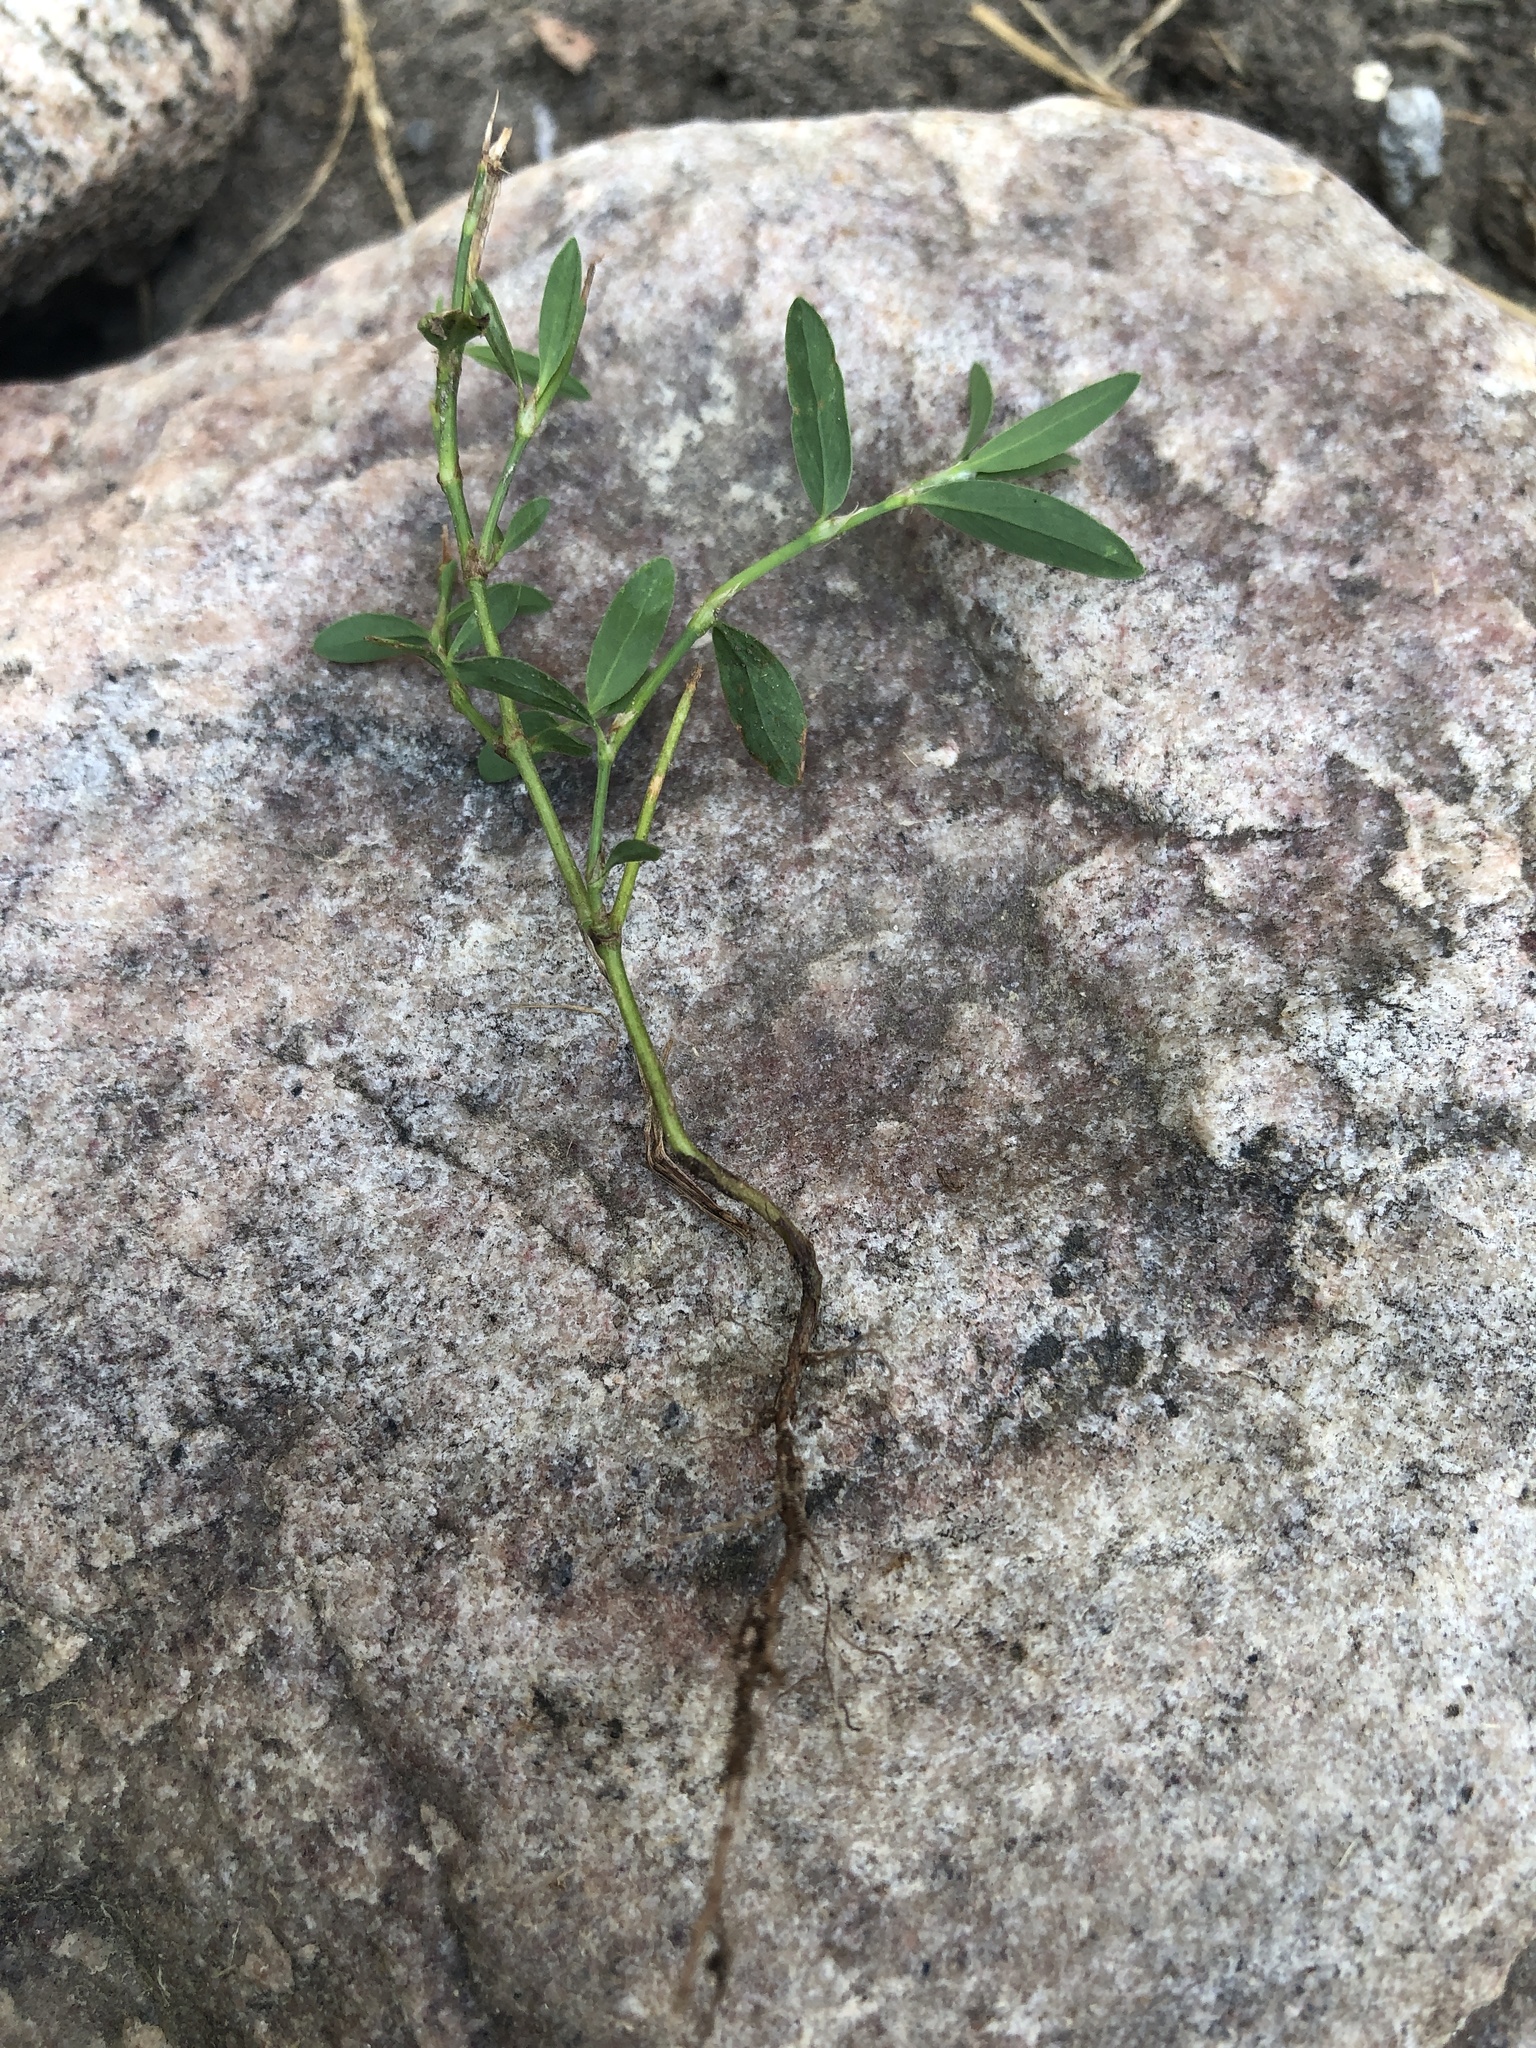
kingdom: Plantae
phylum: Tracheophyta
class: Magnoliopsida
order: Caryophyllales
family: Polygonaceae
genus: Polygonum
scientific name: Polygonum aviculare
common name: Prostrate knotweed
